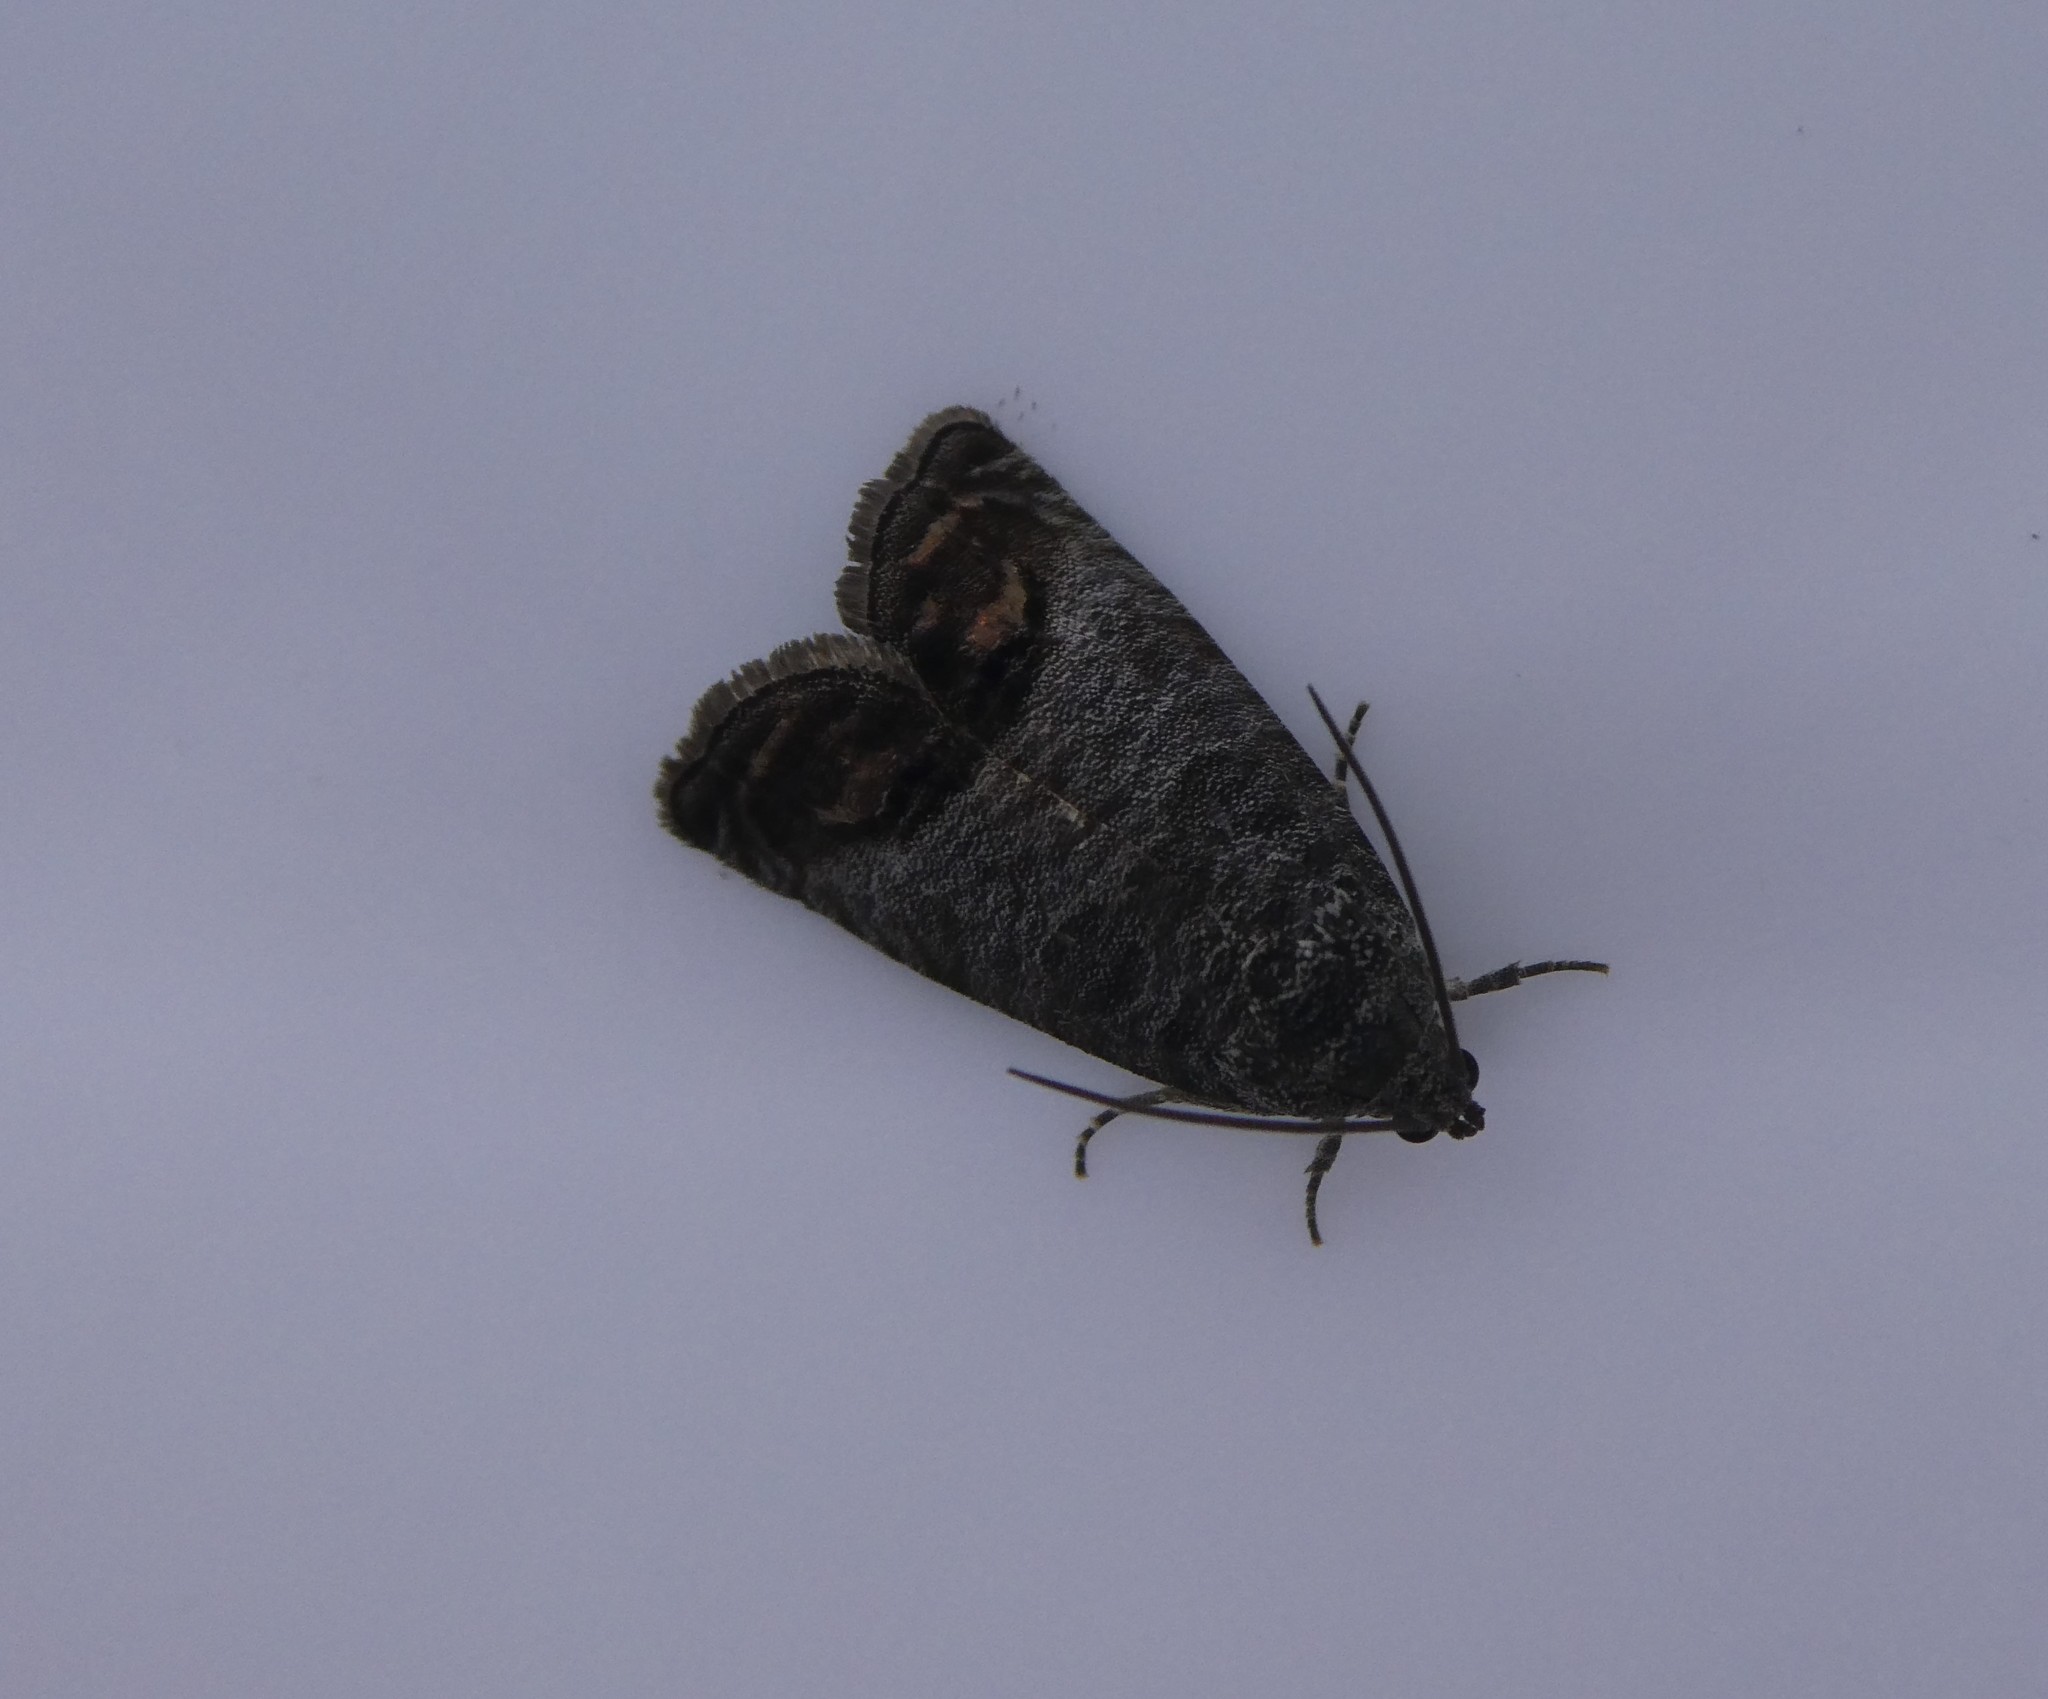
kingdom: Animalia
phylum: Arthropoda
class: Insecta
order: Lepidoptera
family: Tortricidae
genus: Cydia
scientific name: Cydia pomonella
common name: Codling moth
